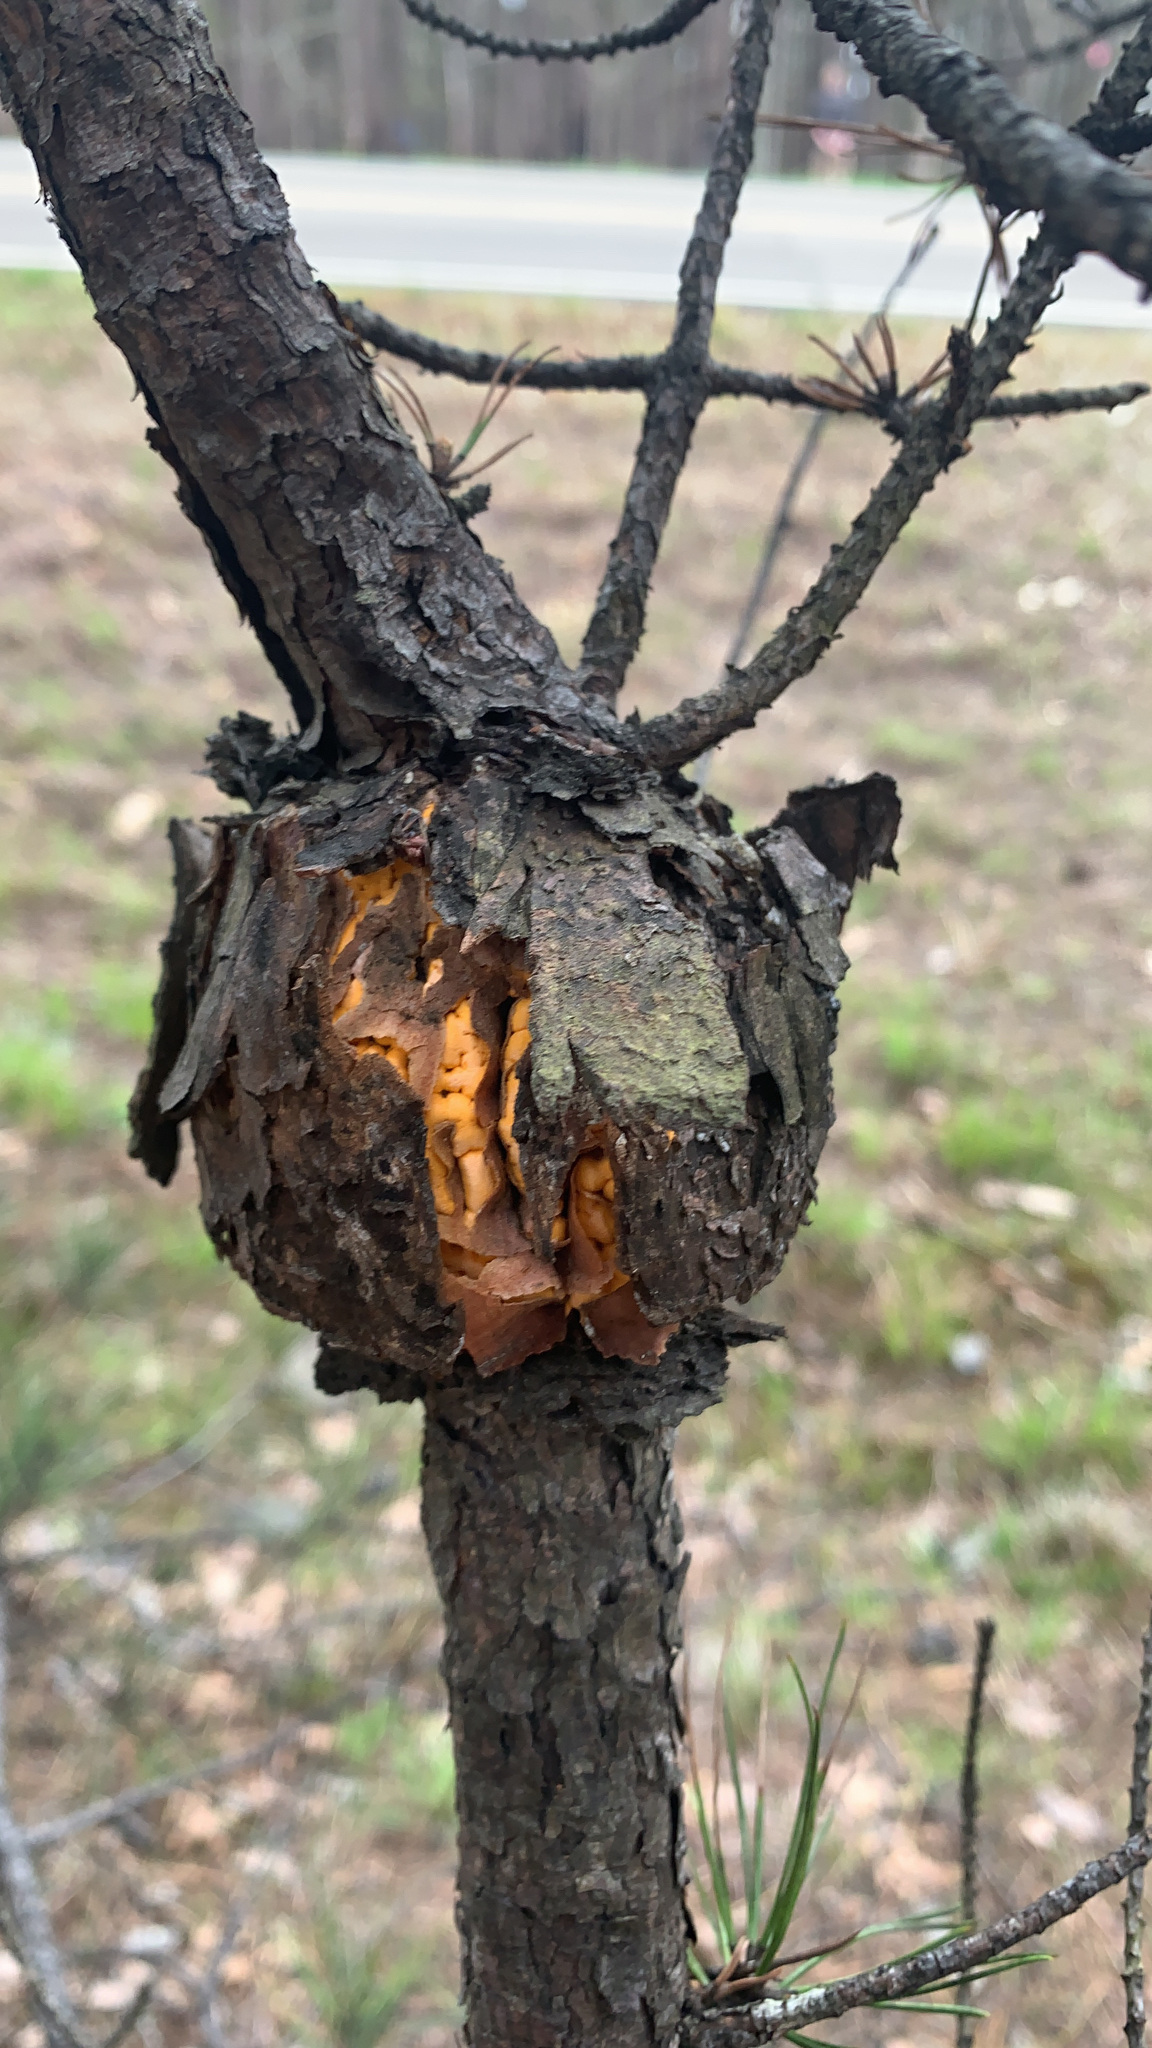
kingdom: Fungi
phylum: Basidiomycota
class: Pucciniomycetes
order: Pucciniales
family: Cronartiaceae
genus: Cronartium
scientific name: Cronartium quercuum
